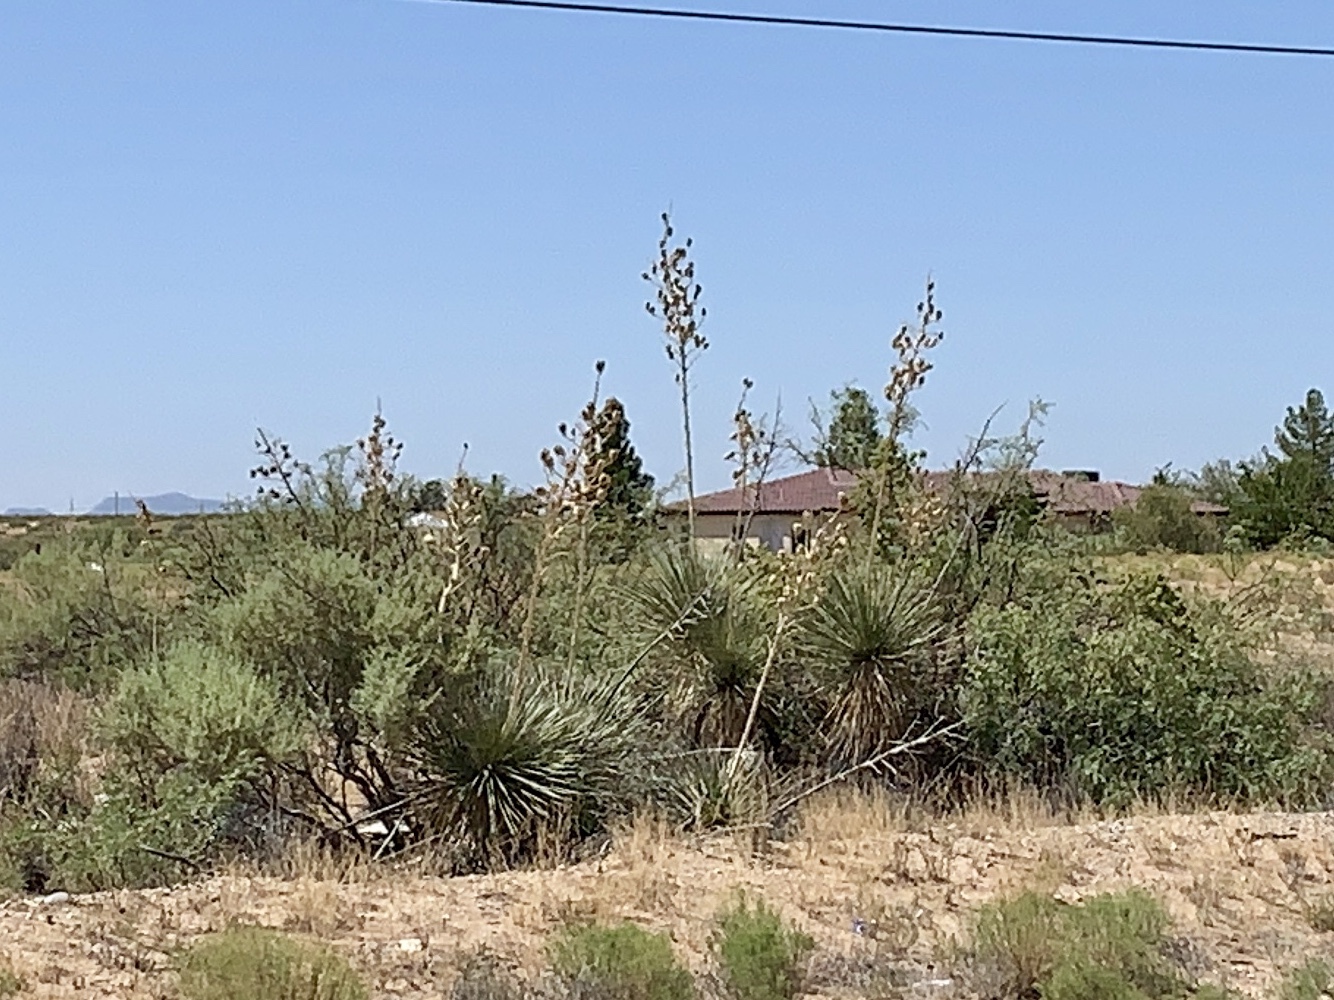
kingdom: Plantae
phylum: Tracheophyta
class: Liliopsida
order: Asparagales
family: Asparagaceae
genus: Yucca
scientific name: Yucca elata
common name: Palmella
